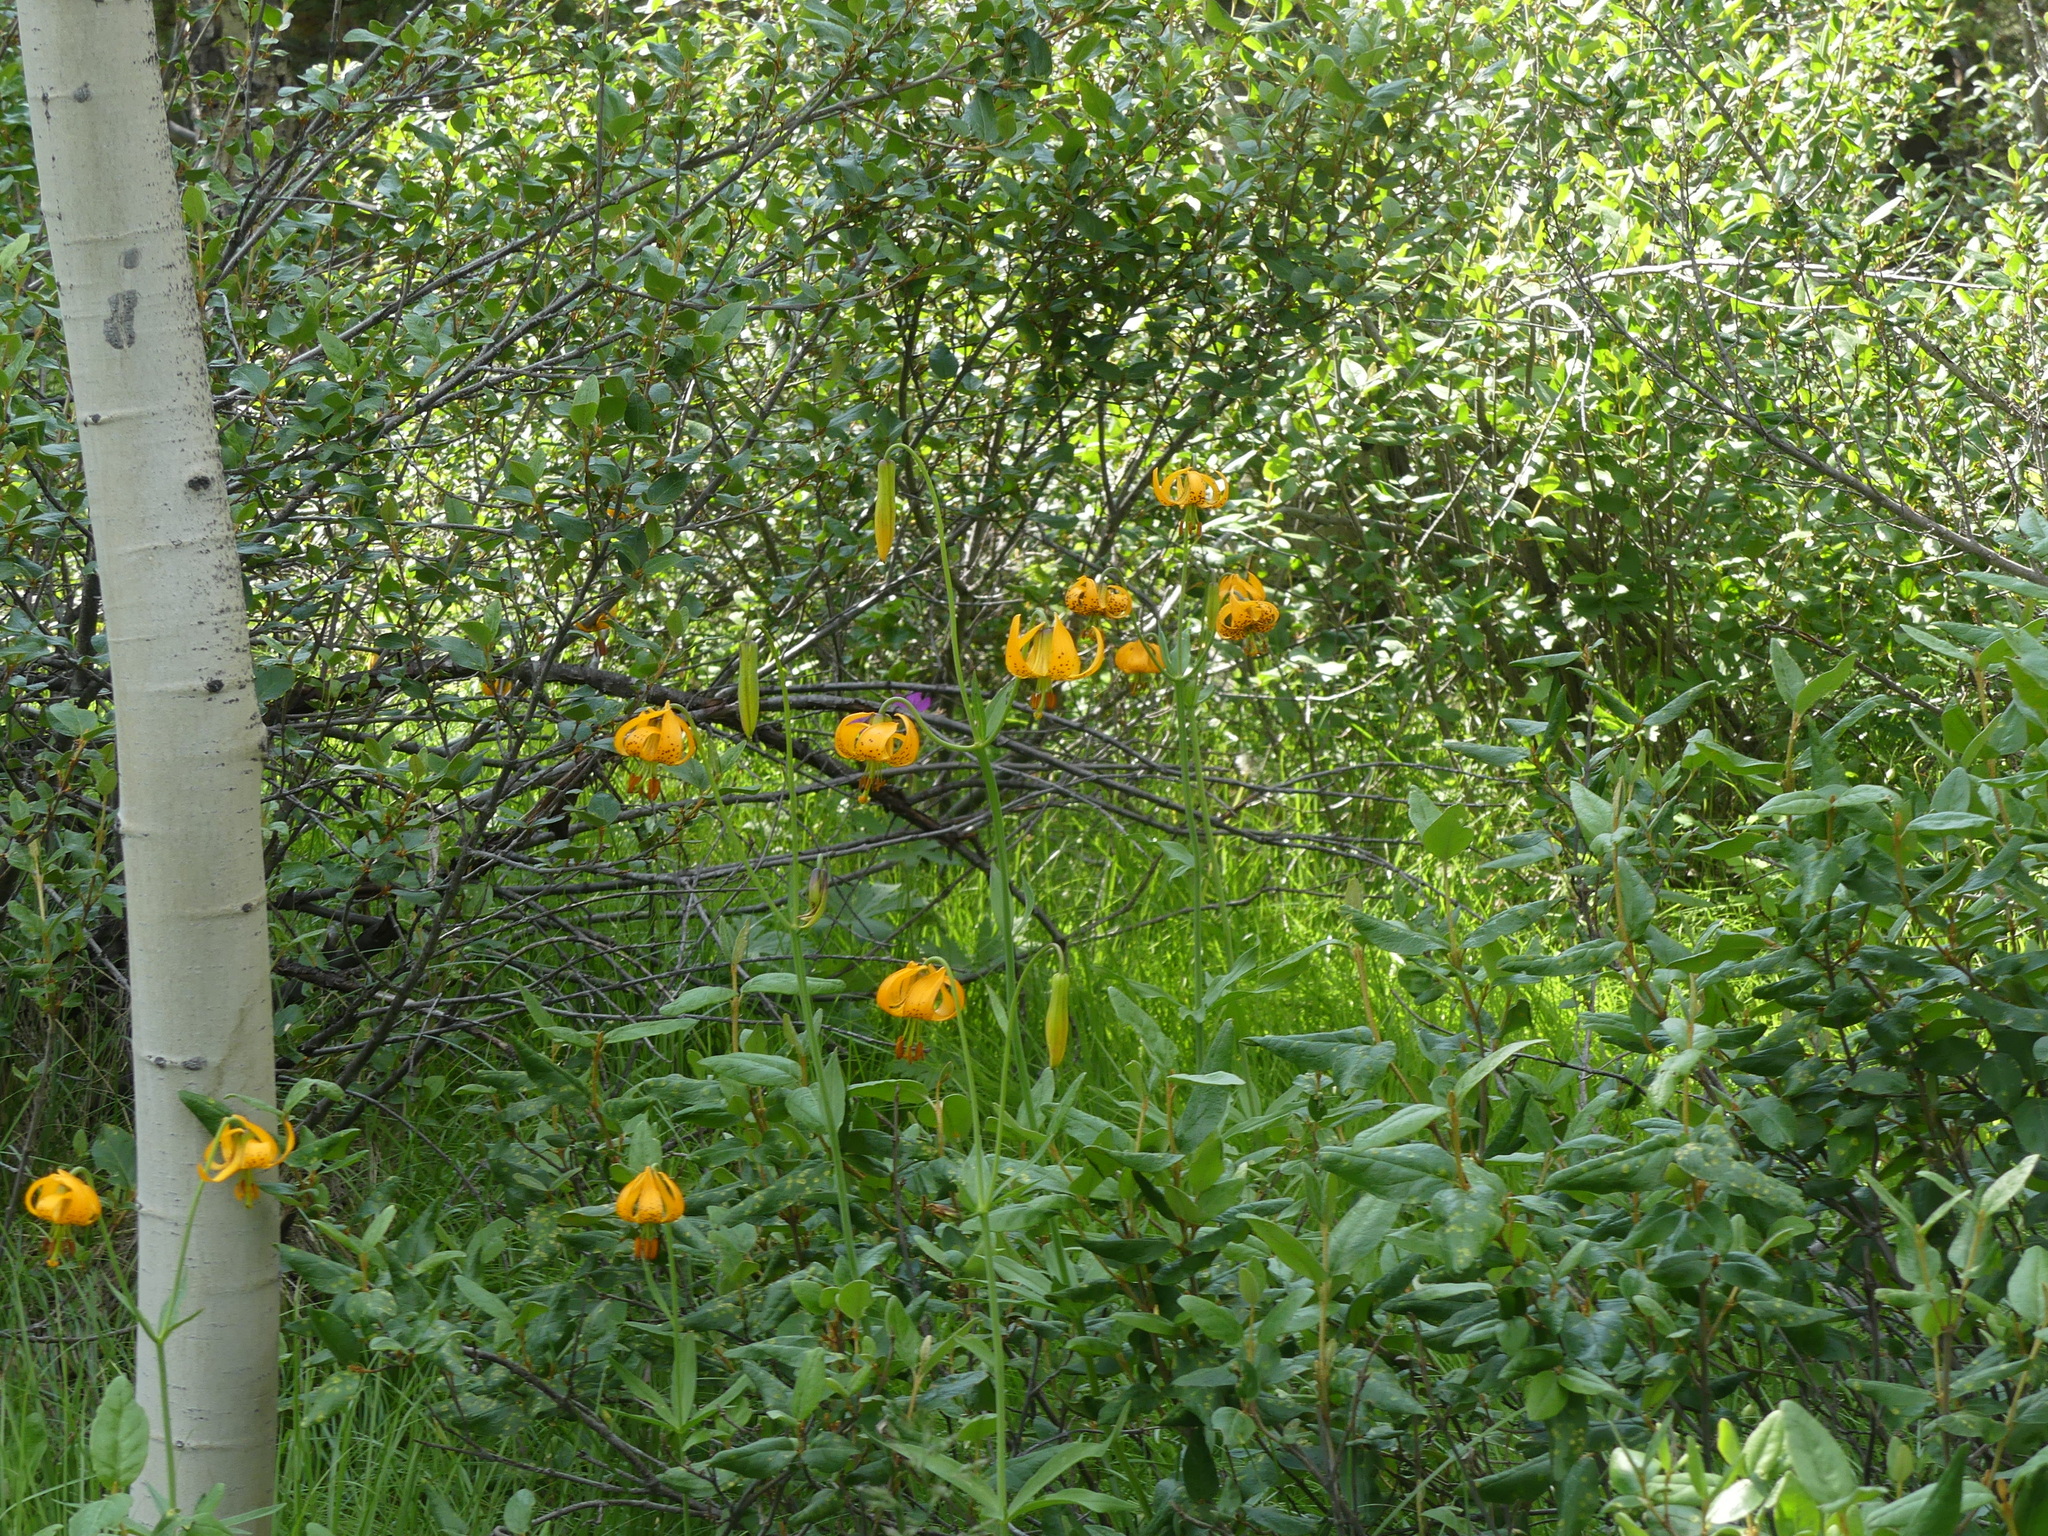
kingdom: Plantae
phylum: Tracheophyta
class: Liliopsida
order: Liliales
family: Liliaceae
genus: Lilium
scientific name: Lilium columbianum
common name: Columbia lily
